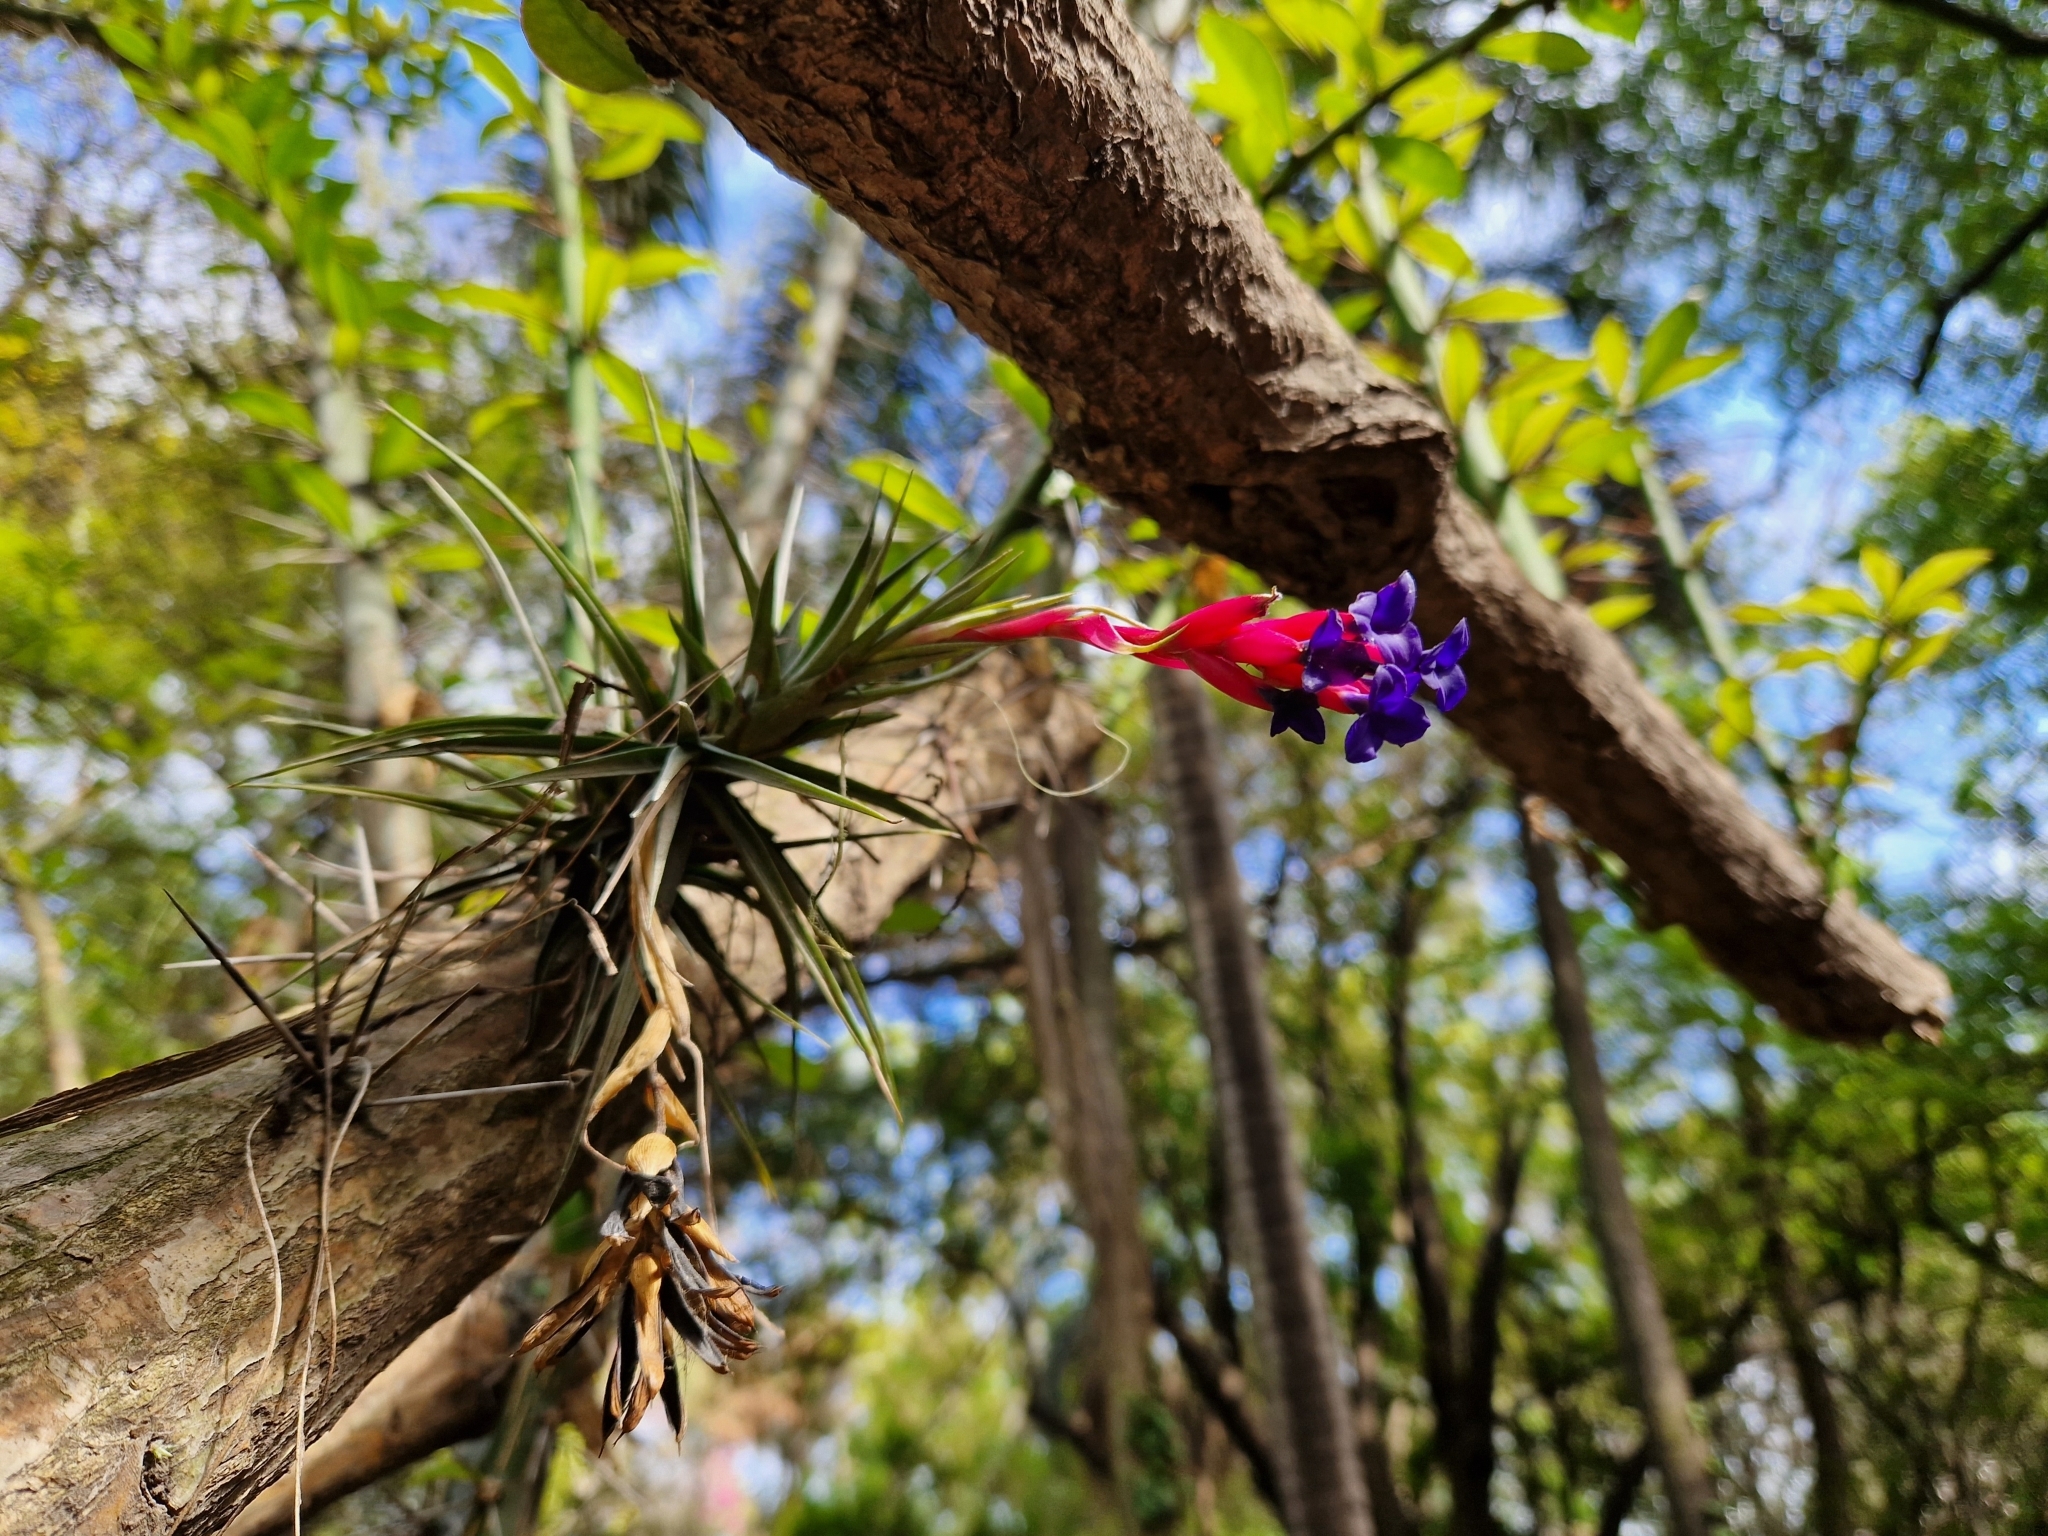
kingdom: Plantae
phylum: Tracheophyta
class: Liliopsida
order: Poales
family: Bromeliaceae
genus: Tillandsia
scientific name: Tillandsia aeranthos
